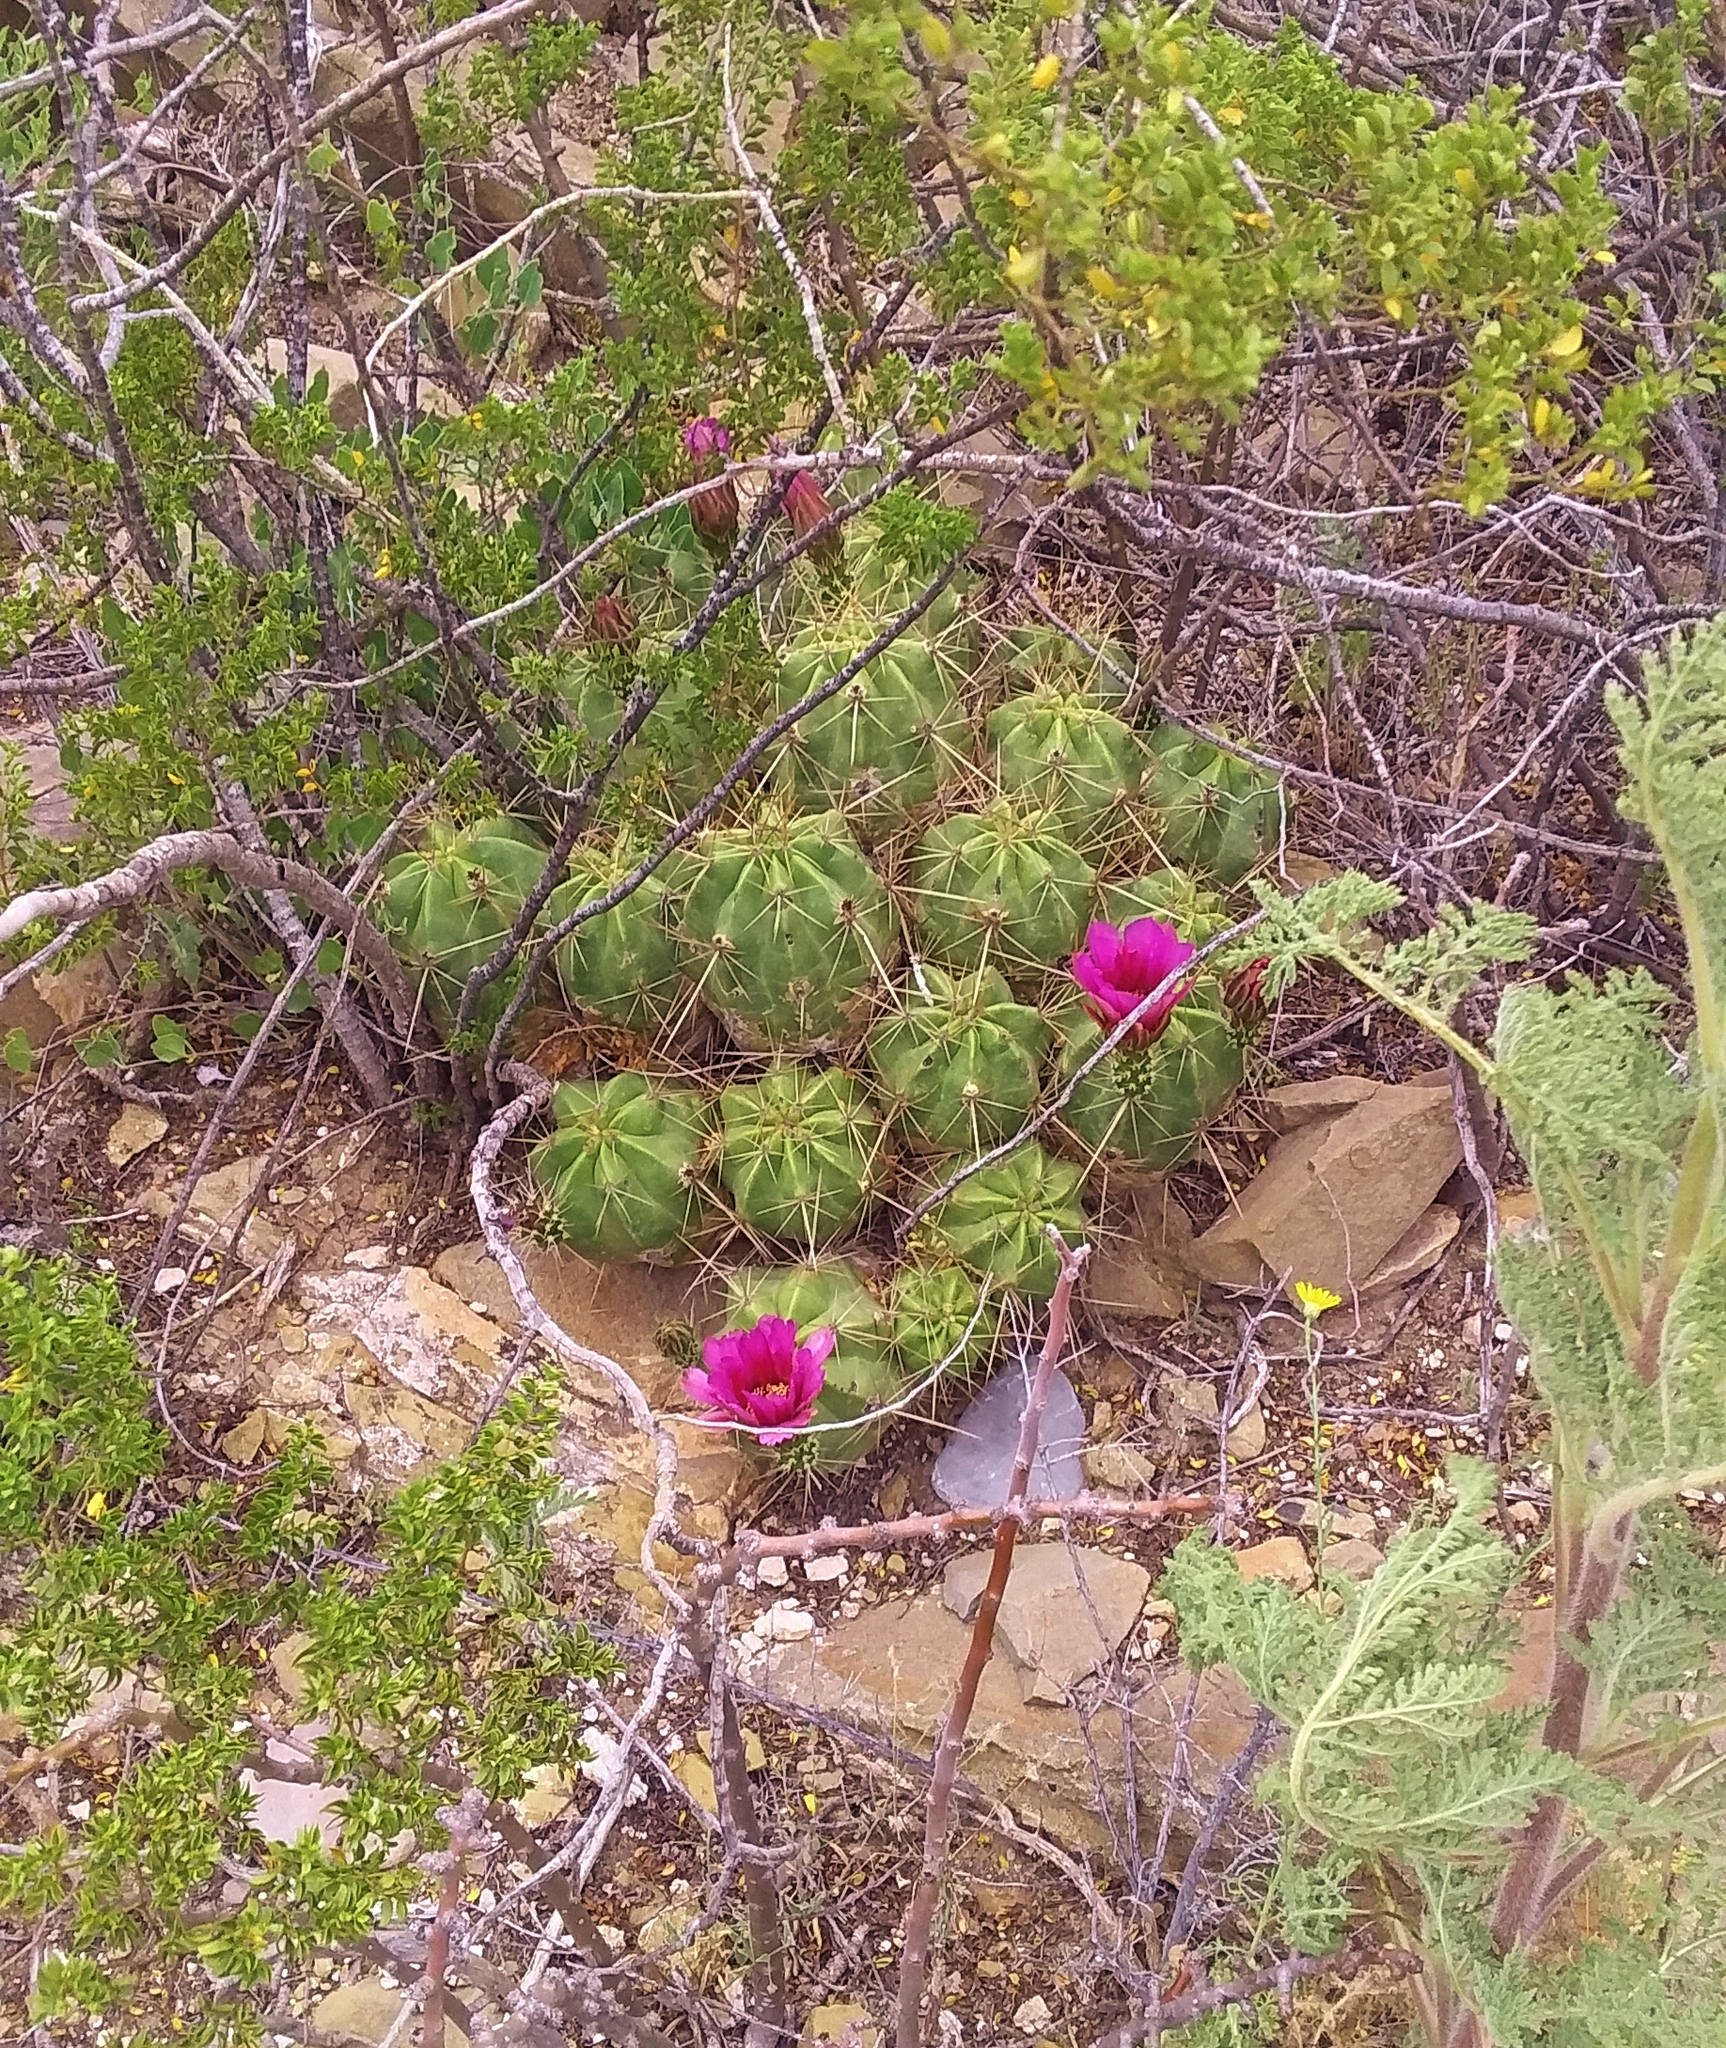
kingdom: Plantae
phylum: Tracheophyta
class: Magnoliopsida
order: Caryophyllales
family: Cactaceae
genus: Echinocereus
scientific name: Echinocereus enneacanthus
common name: Pitaya
